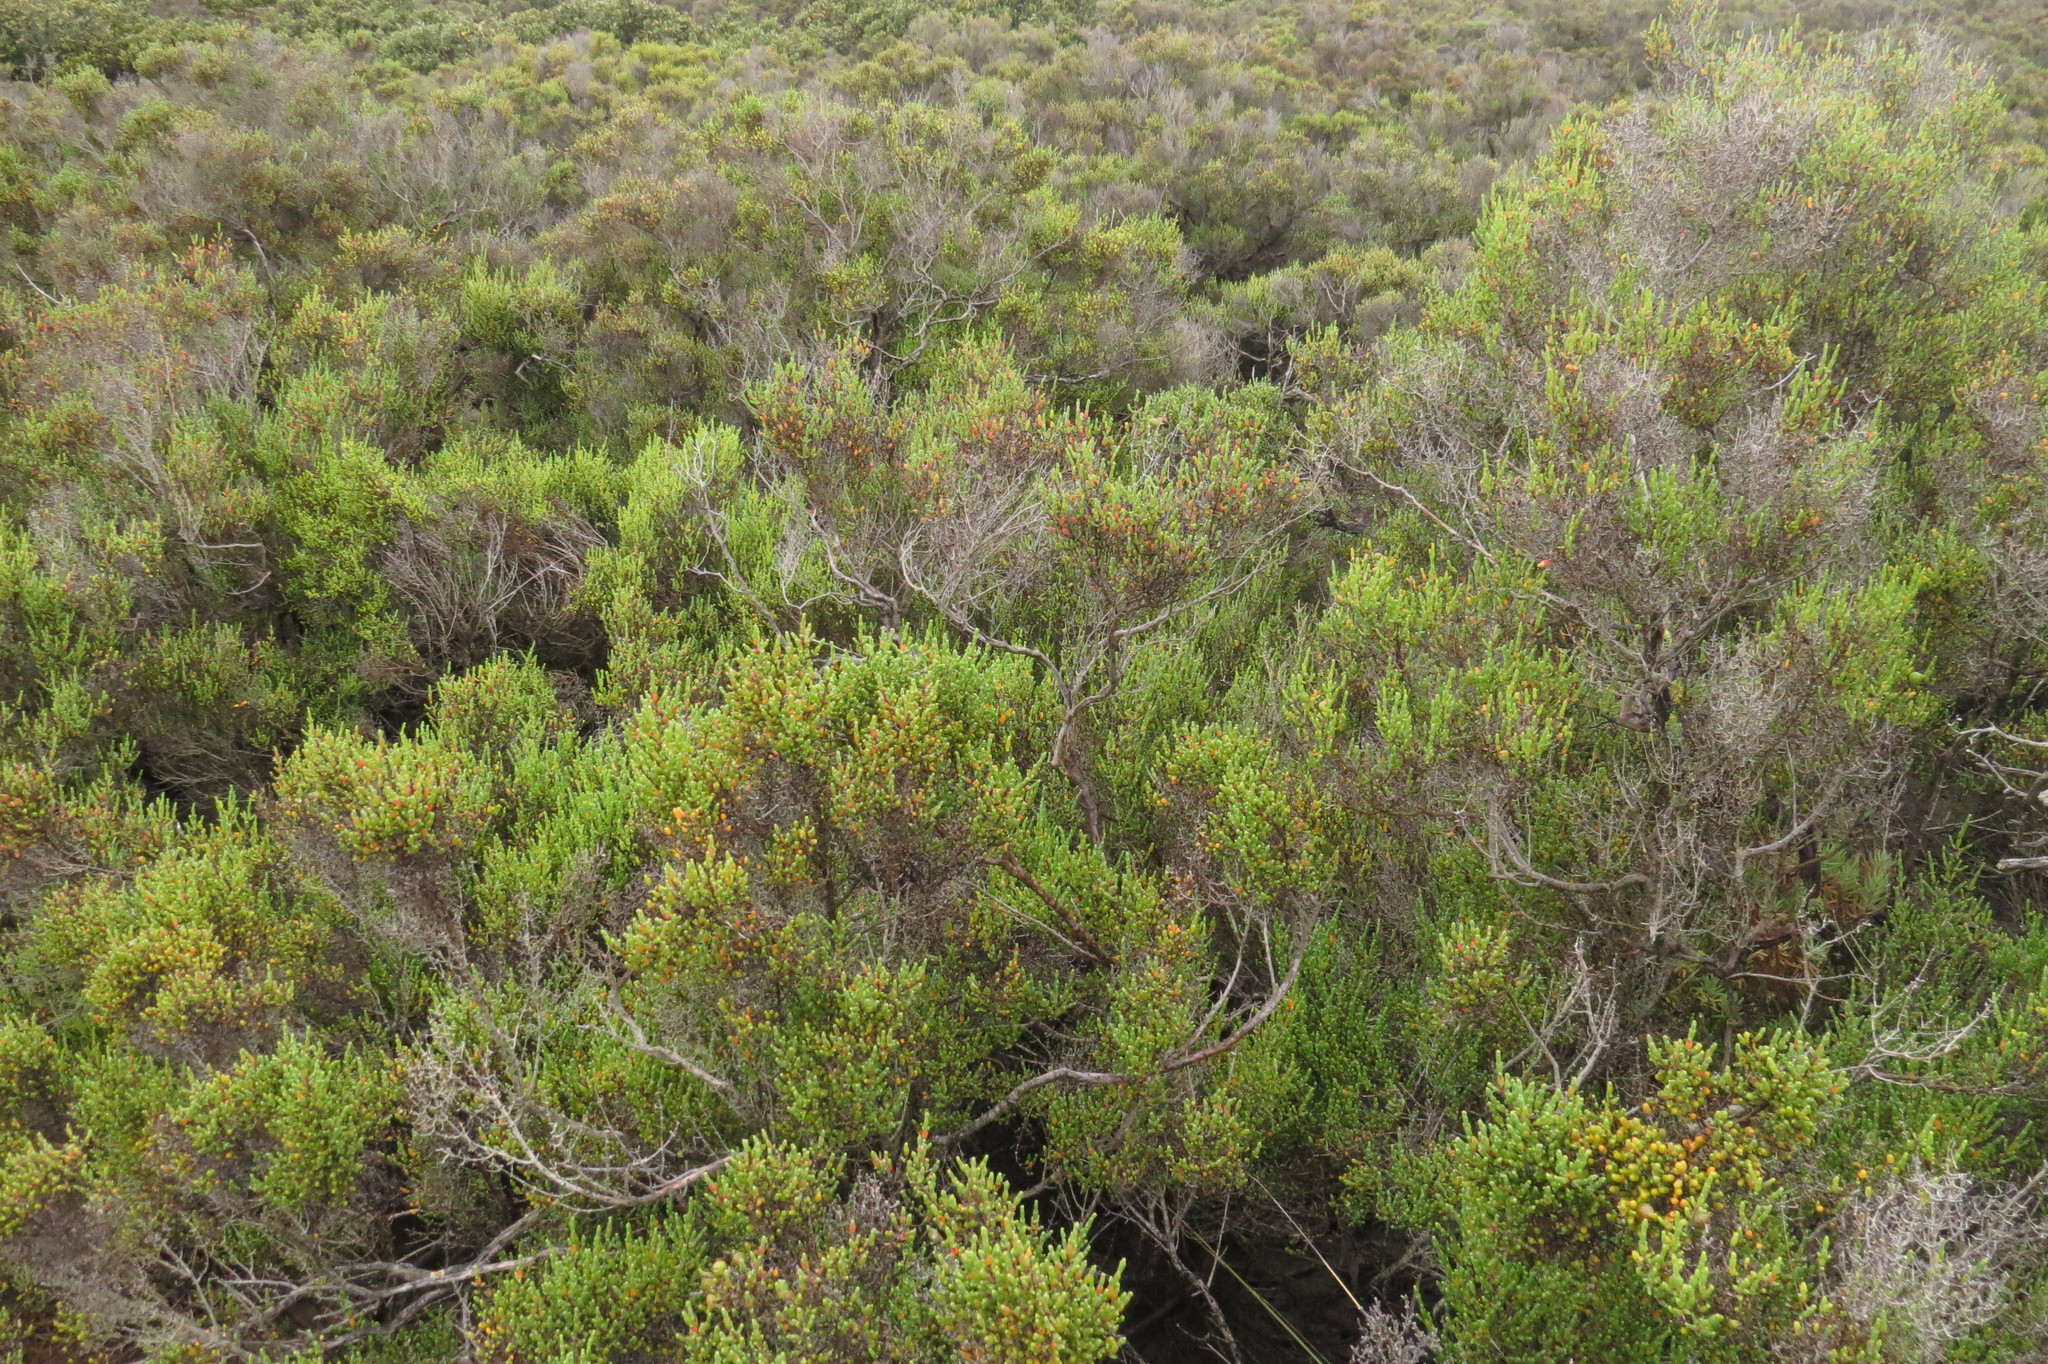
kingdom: Plantae
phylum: Tracheophyta
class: Magnoliopsida
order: Caryophyllales
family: Amaranthaceae
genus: Tecticornia
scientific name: Tecticornia arbuscula
